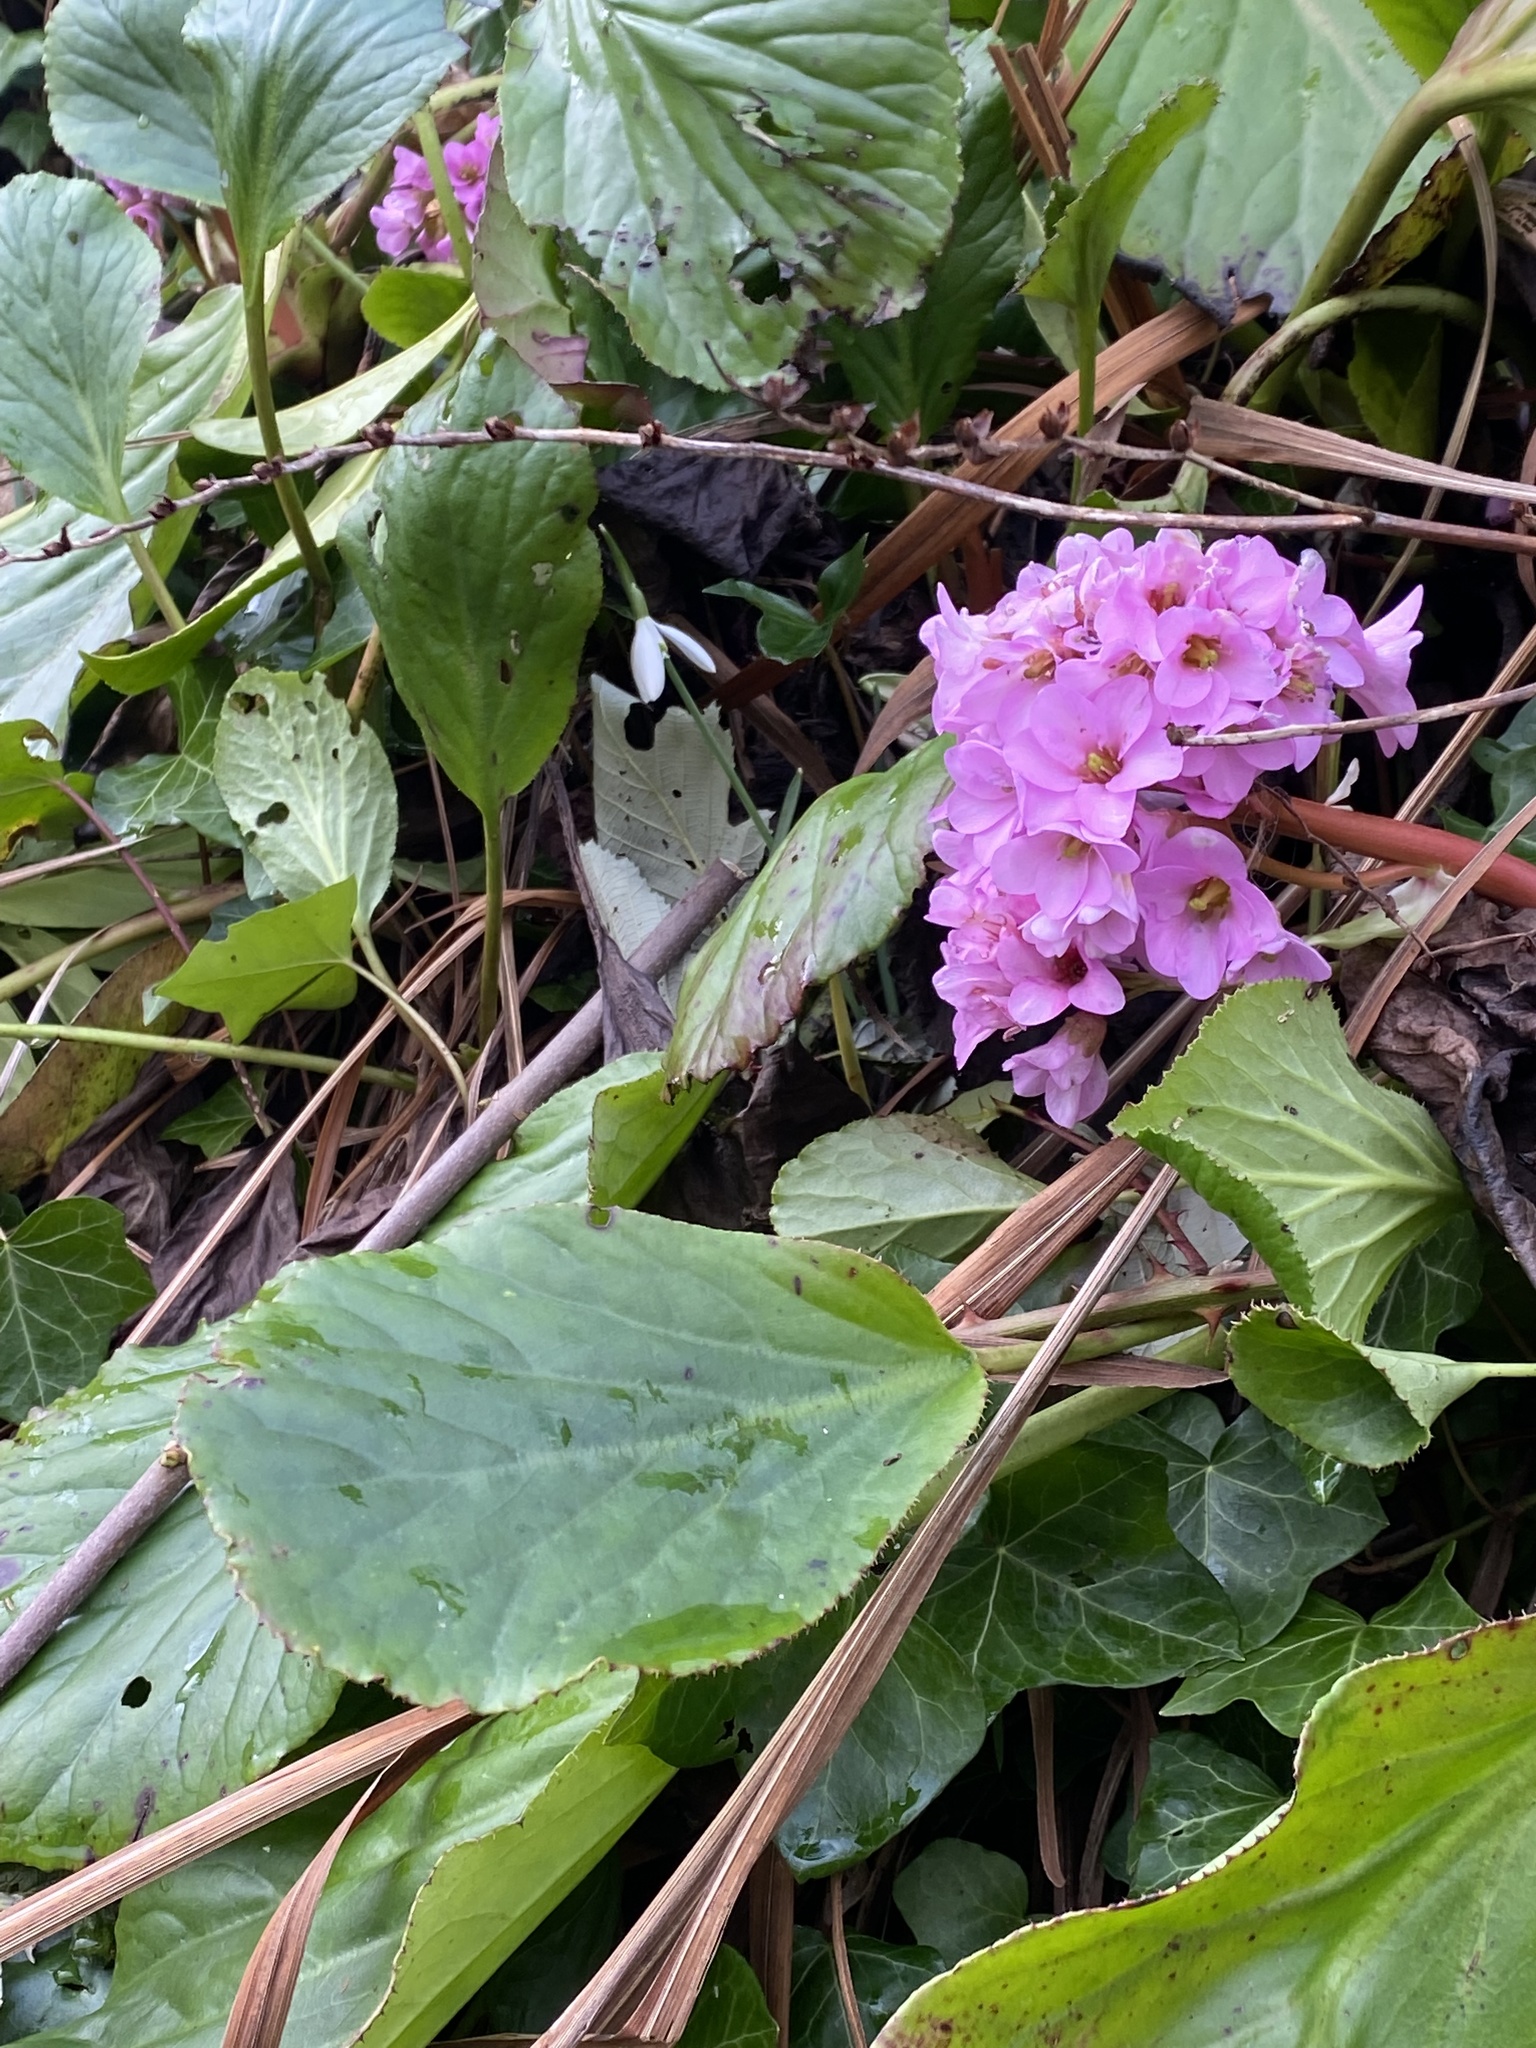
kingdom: Plantae
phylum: Tracheophyta
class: Magnoliopsida
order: Saxifragales
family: Saxifragaceae
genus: Bergenia
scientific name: Bergenia crassifolia
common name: Elephant-ears
